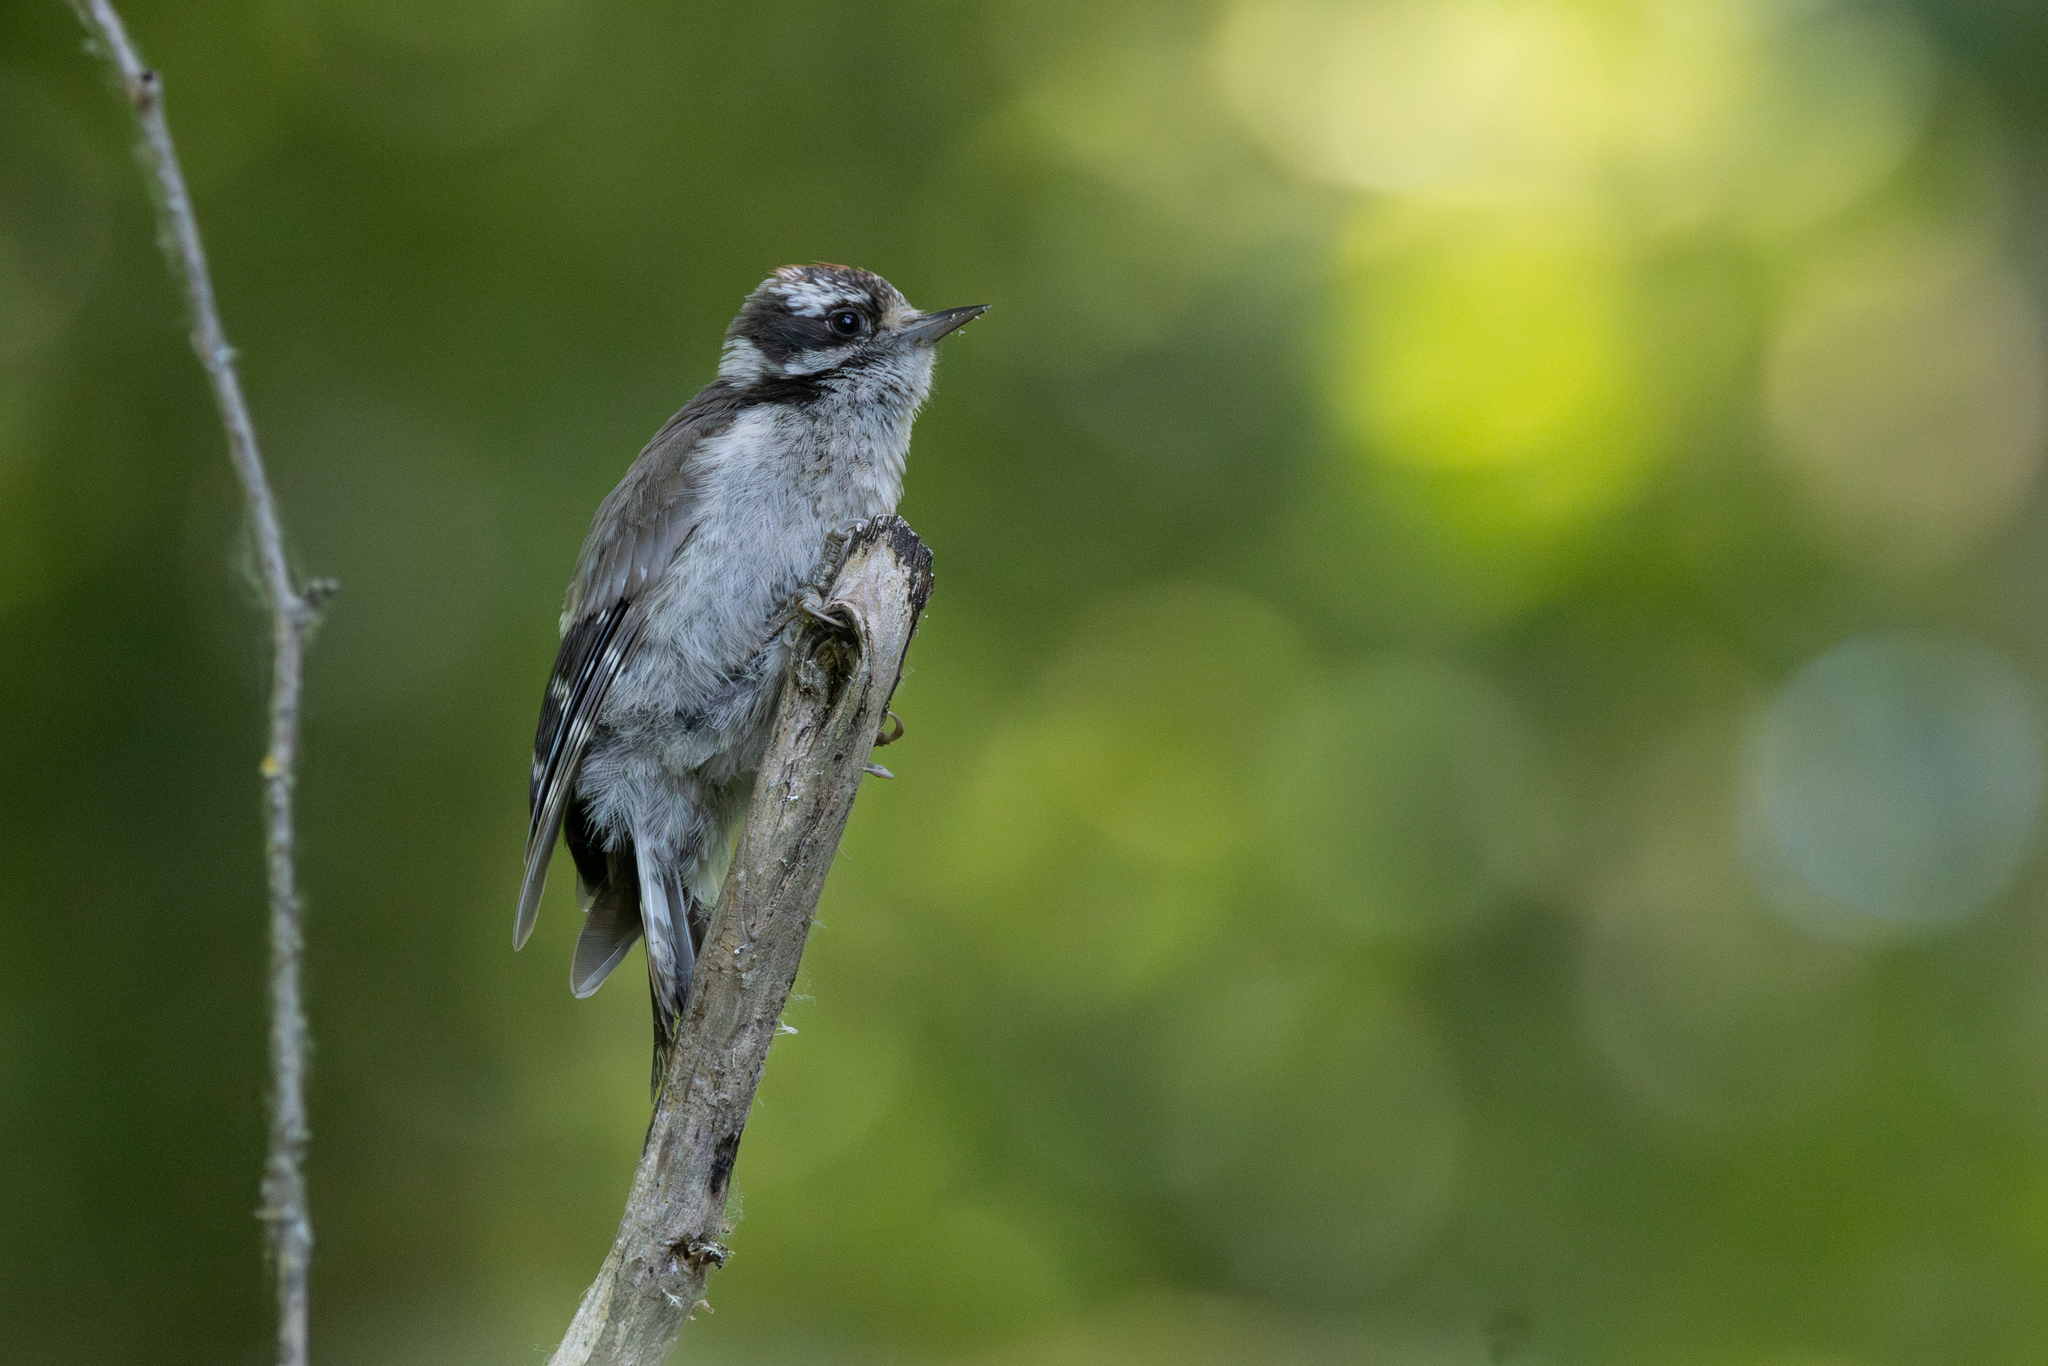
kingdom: Animalia
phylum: Chordata
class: Aves
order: Piciformes
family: Picidae
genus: Dryobates
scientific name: Dryobates pubescens
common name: Downy woodpecker
